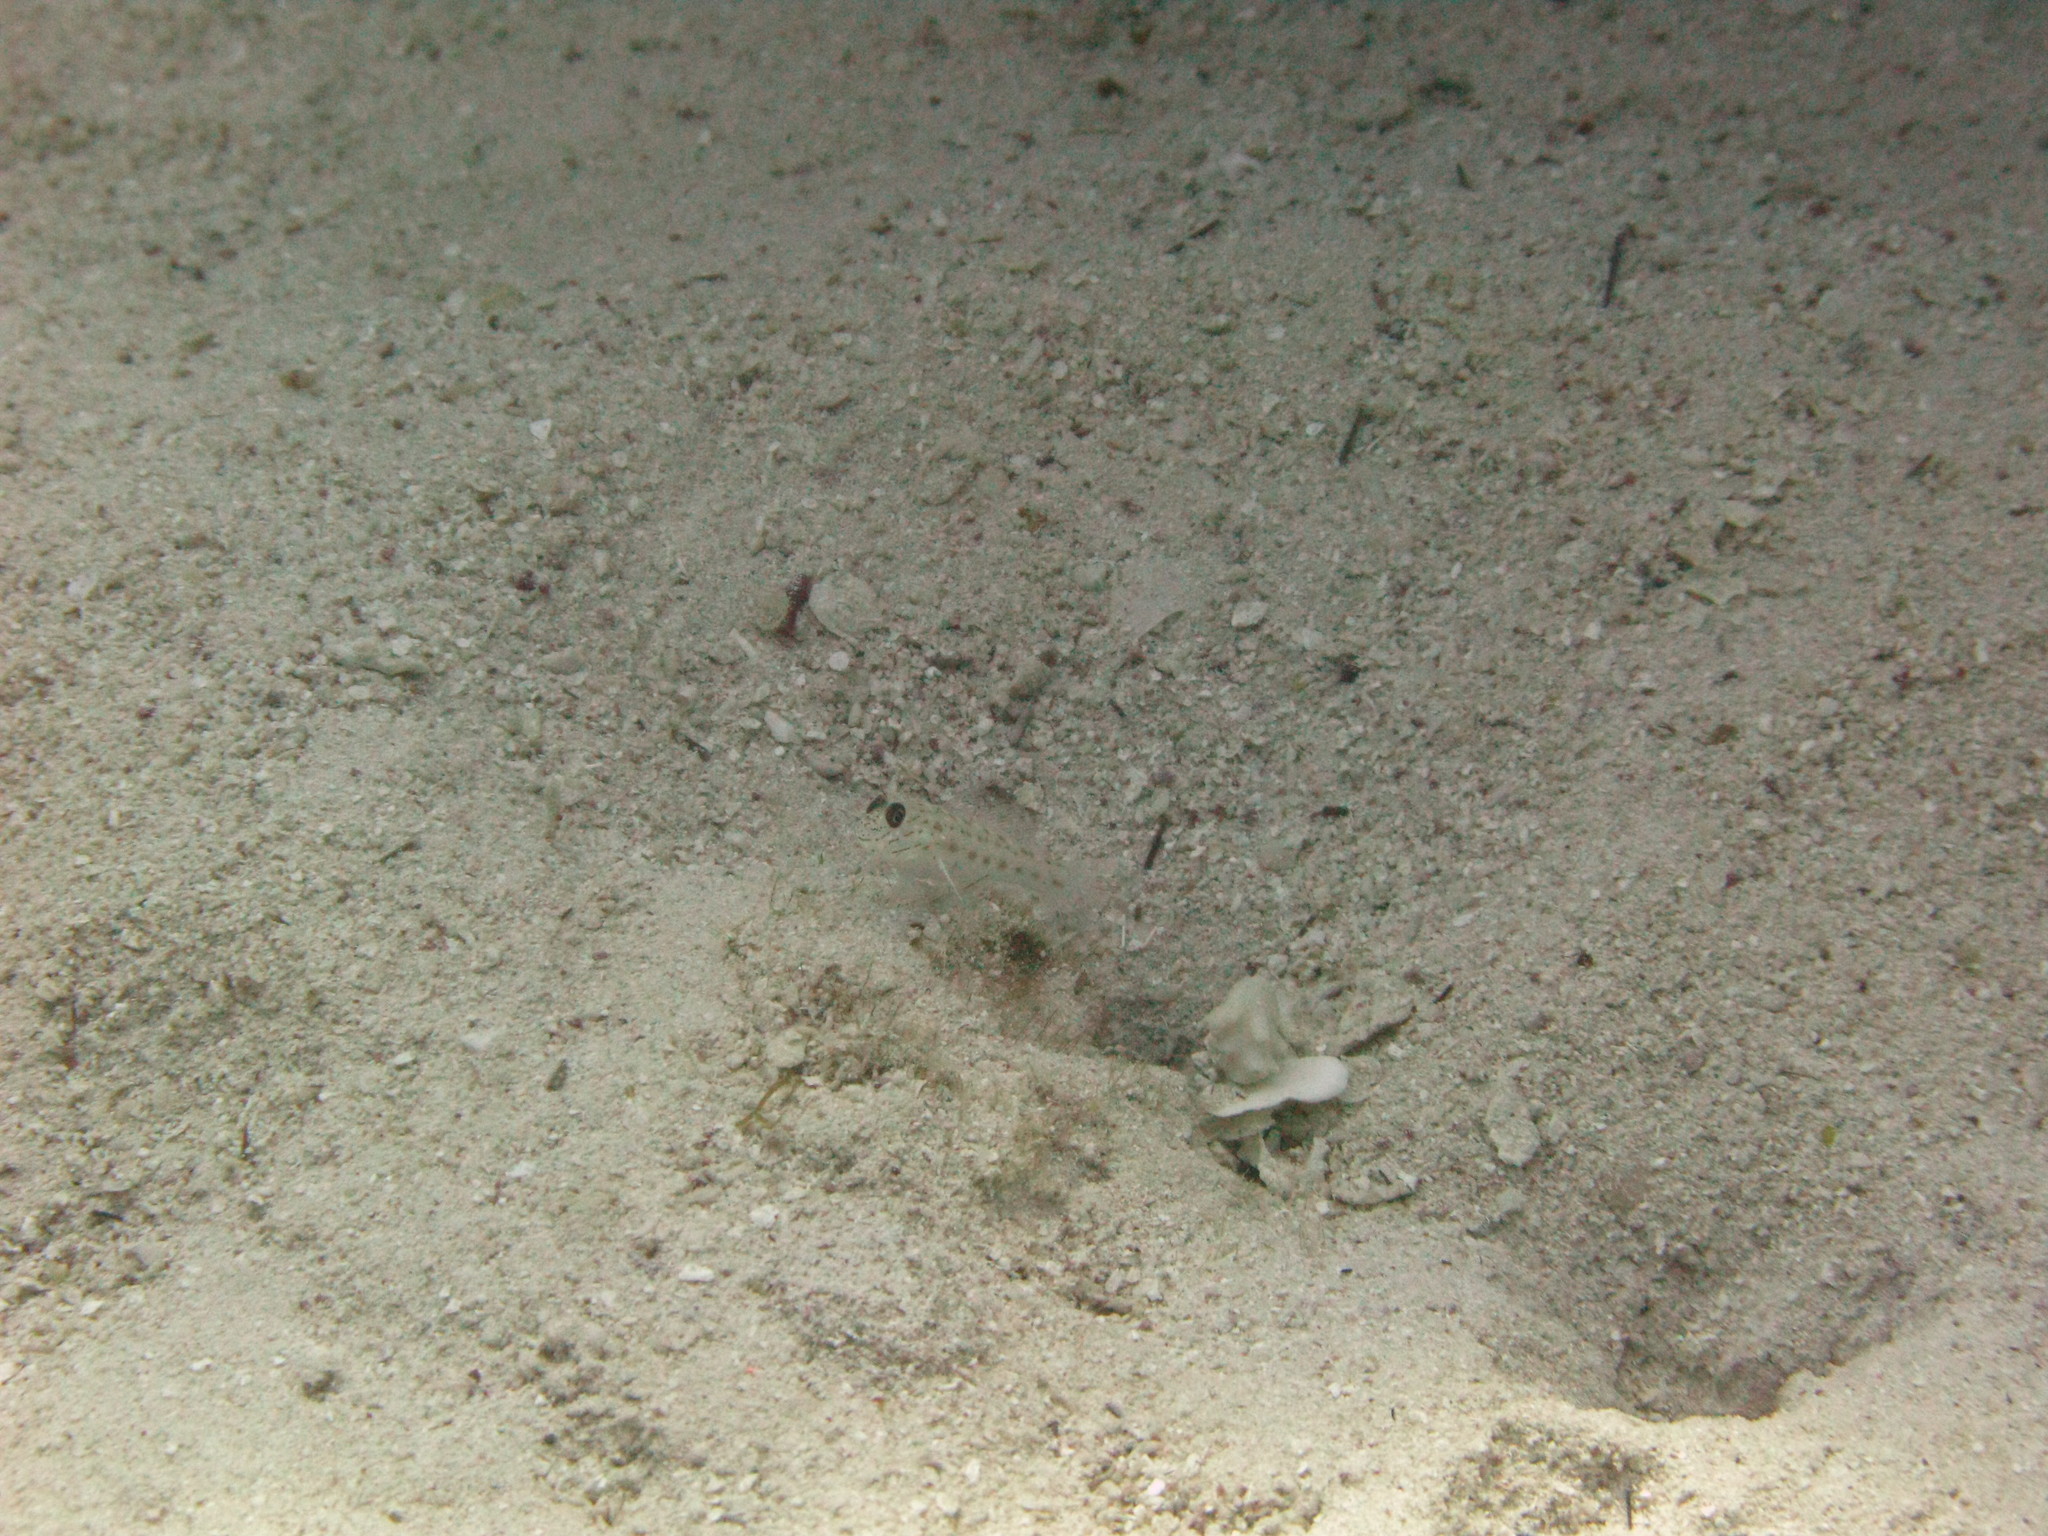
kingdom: Animalia
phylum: Chordata
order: Perciformes
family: Gobiidae
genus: Ctenogobiops
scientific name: Ctenogobiops crocineus
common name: Silverspot shrimpgoby
